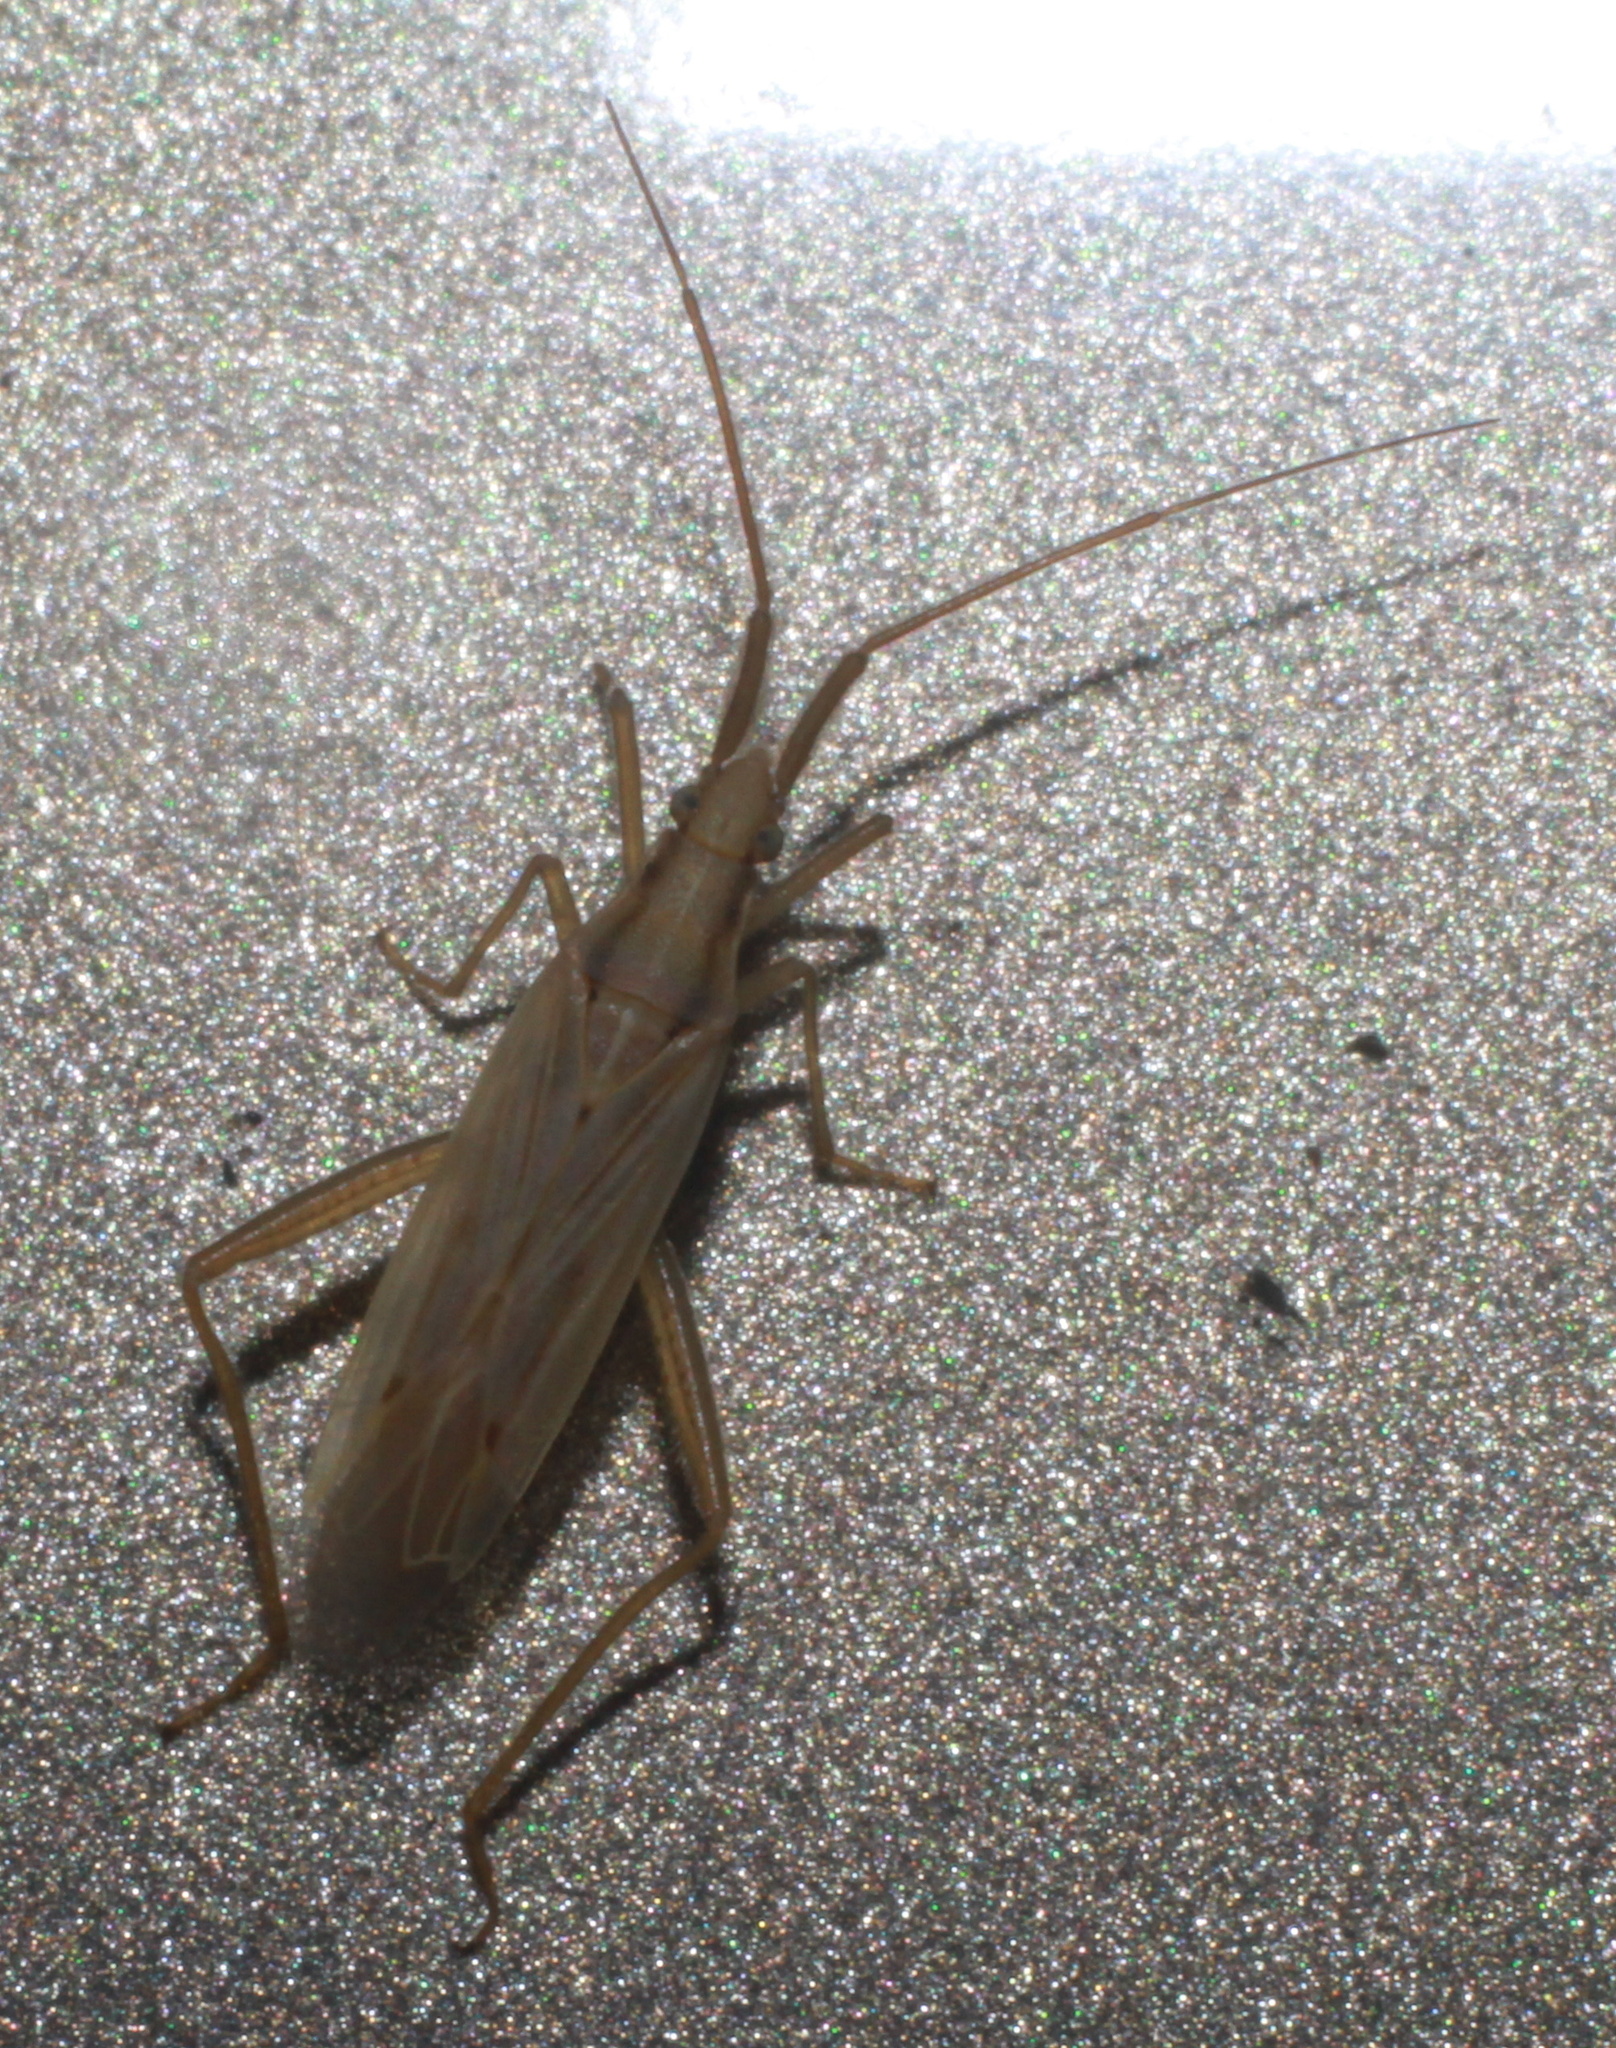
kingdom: Animalia
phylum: Arthropoda
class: Insecta
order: Hemiptera
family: Miridae
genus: Stenodema
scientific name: Stenodema laevigata
